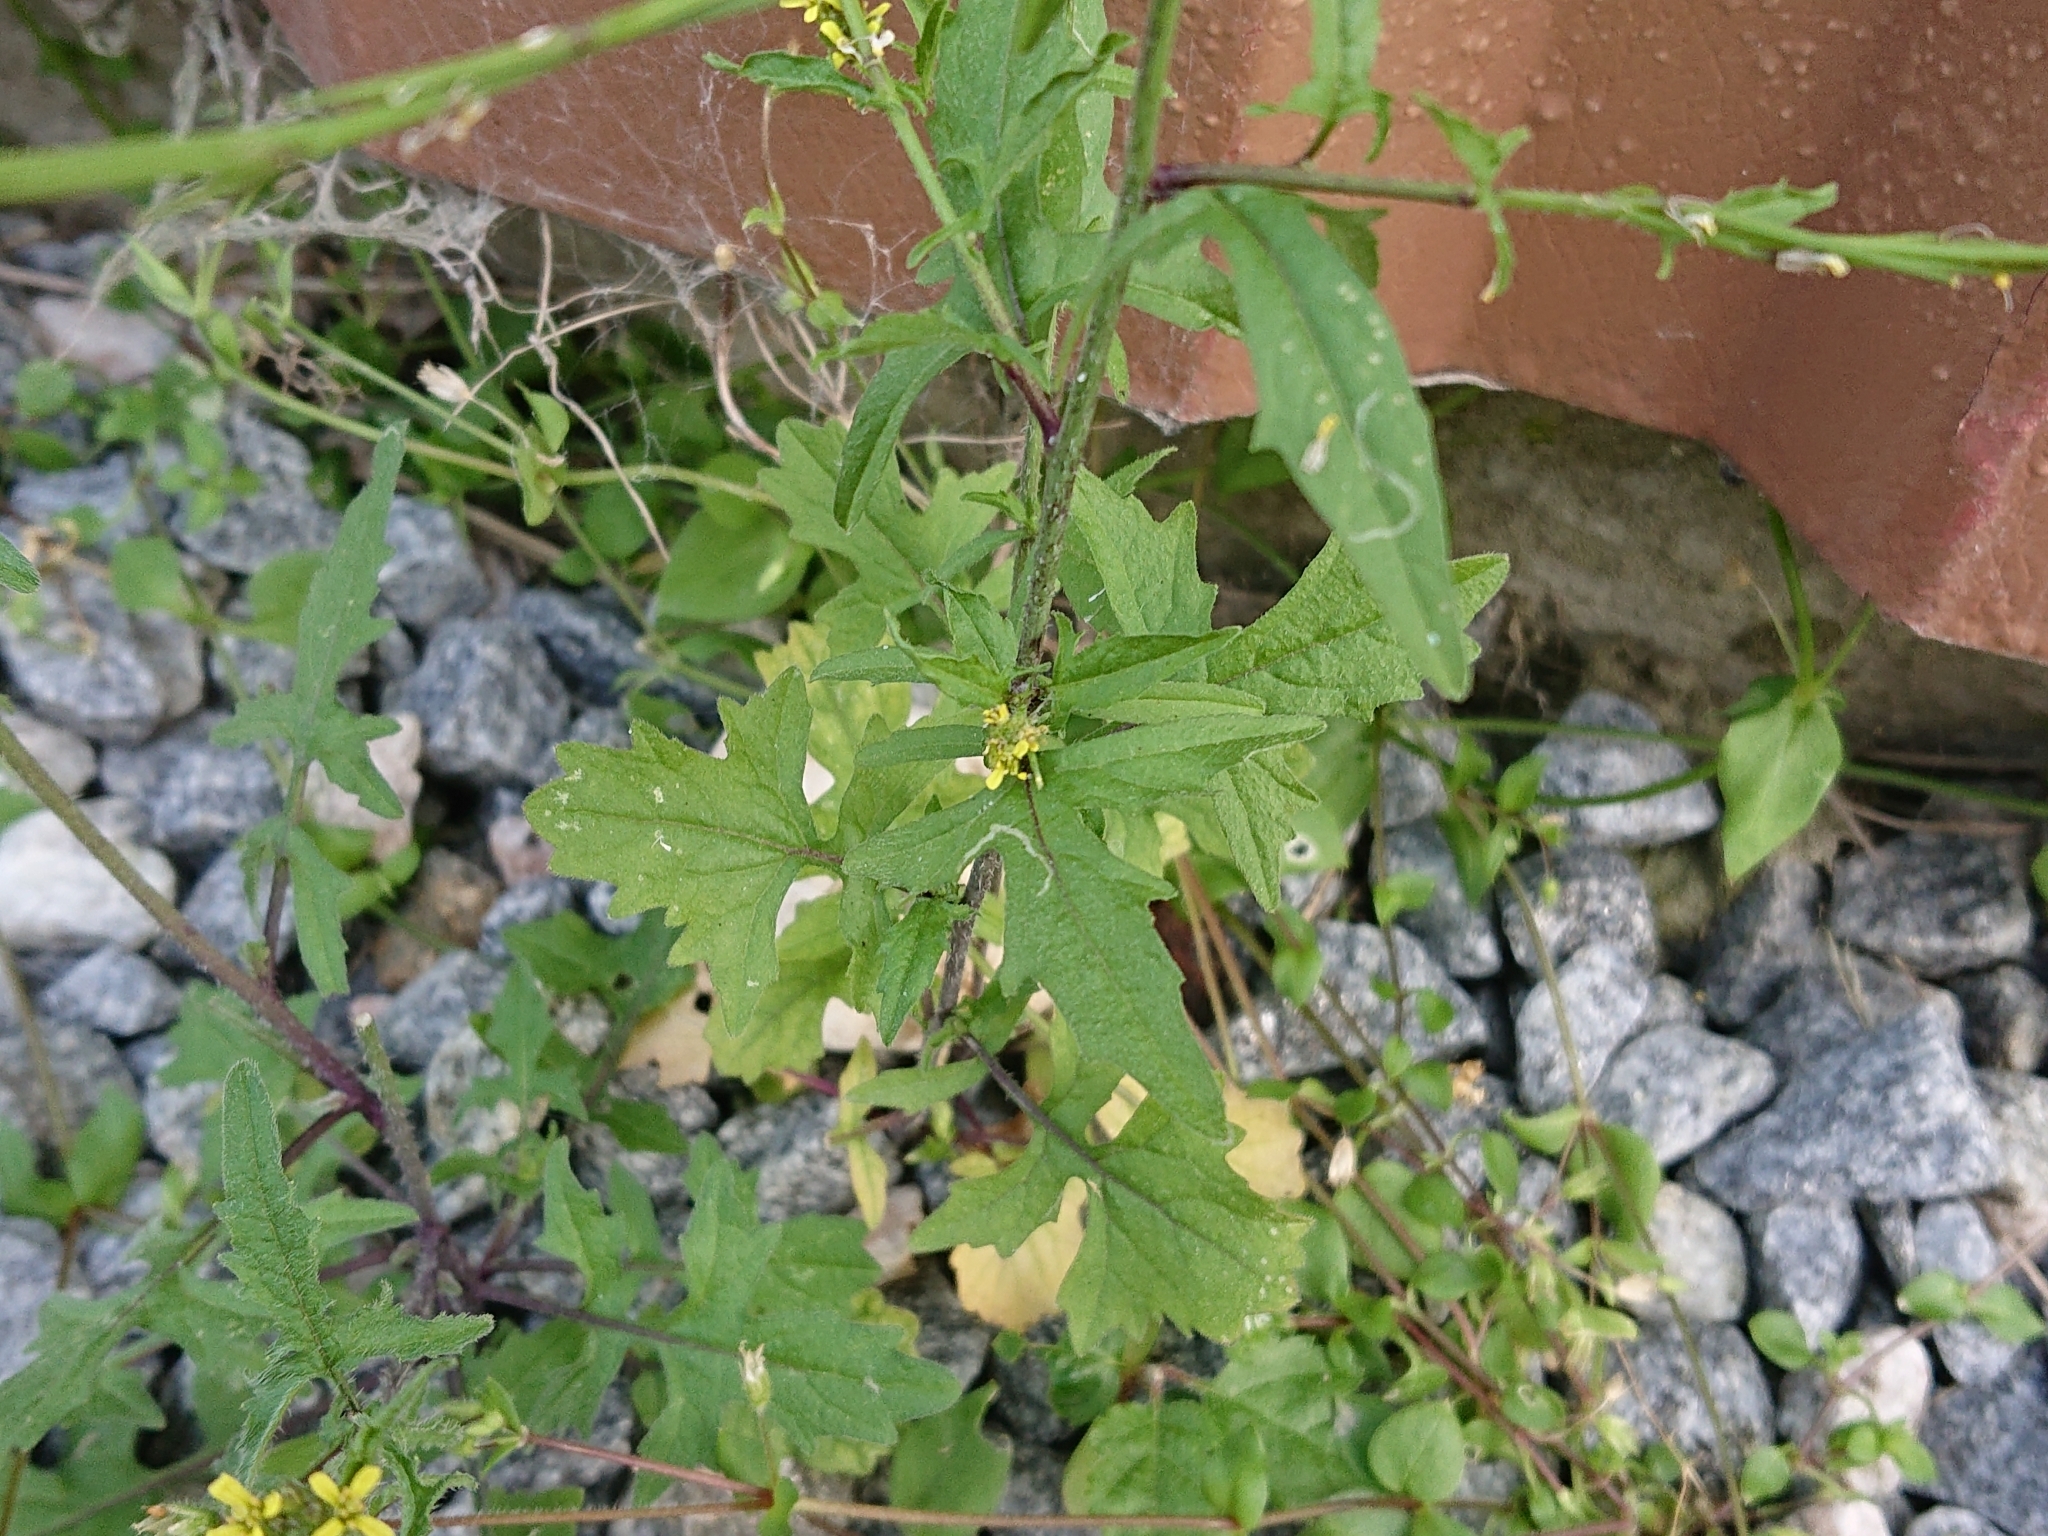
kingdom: Plantae
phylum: Tracheophyta
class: Magnoliopsida
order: Brassicales
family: Brassicaceae
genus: Sisymbrium
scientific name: Sisymbrium officinale
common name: Hedge mustard
